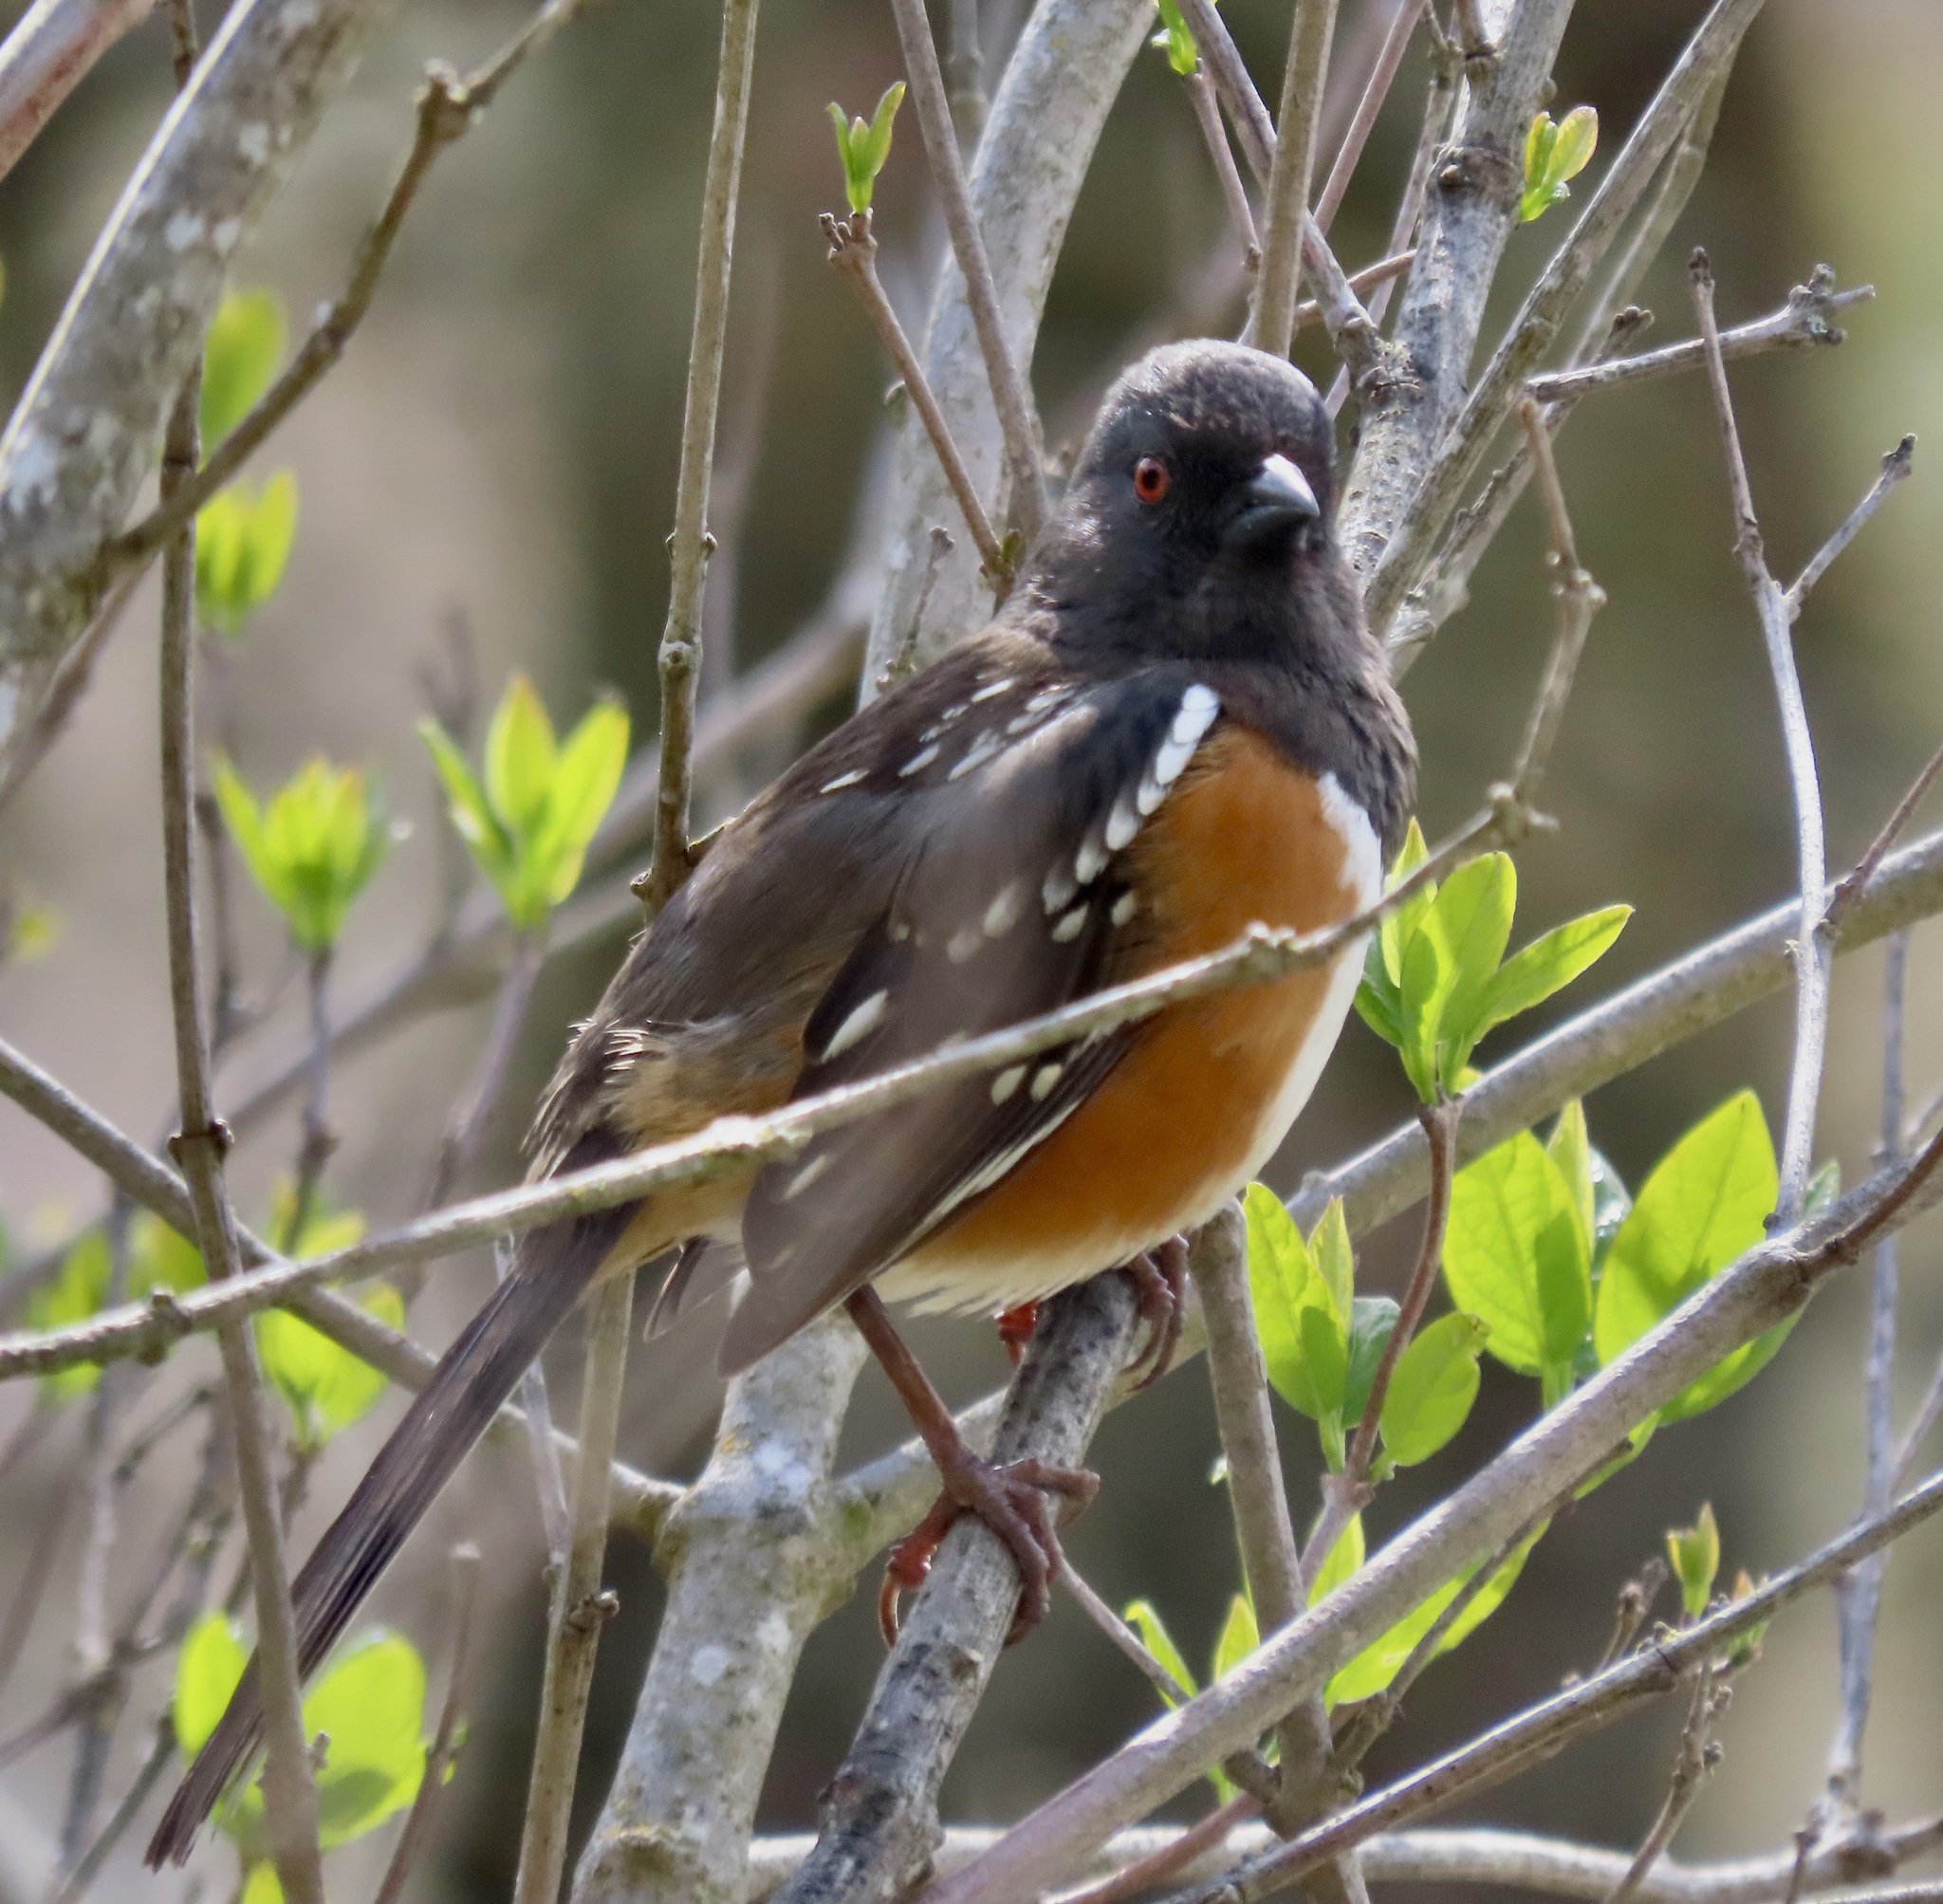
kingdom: Animalia
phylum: Chordata
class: Aves
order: Passeriformes
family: Passerellidae
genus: Pipilo
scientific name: Pipilo maculatus
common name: Spotted towhee
